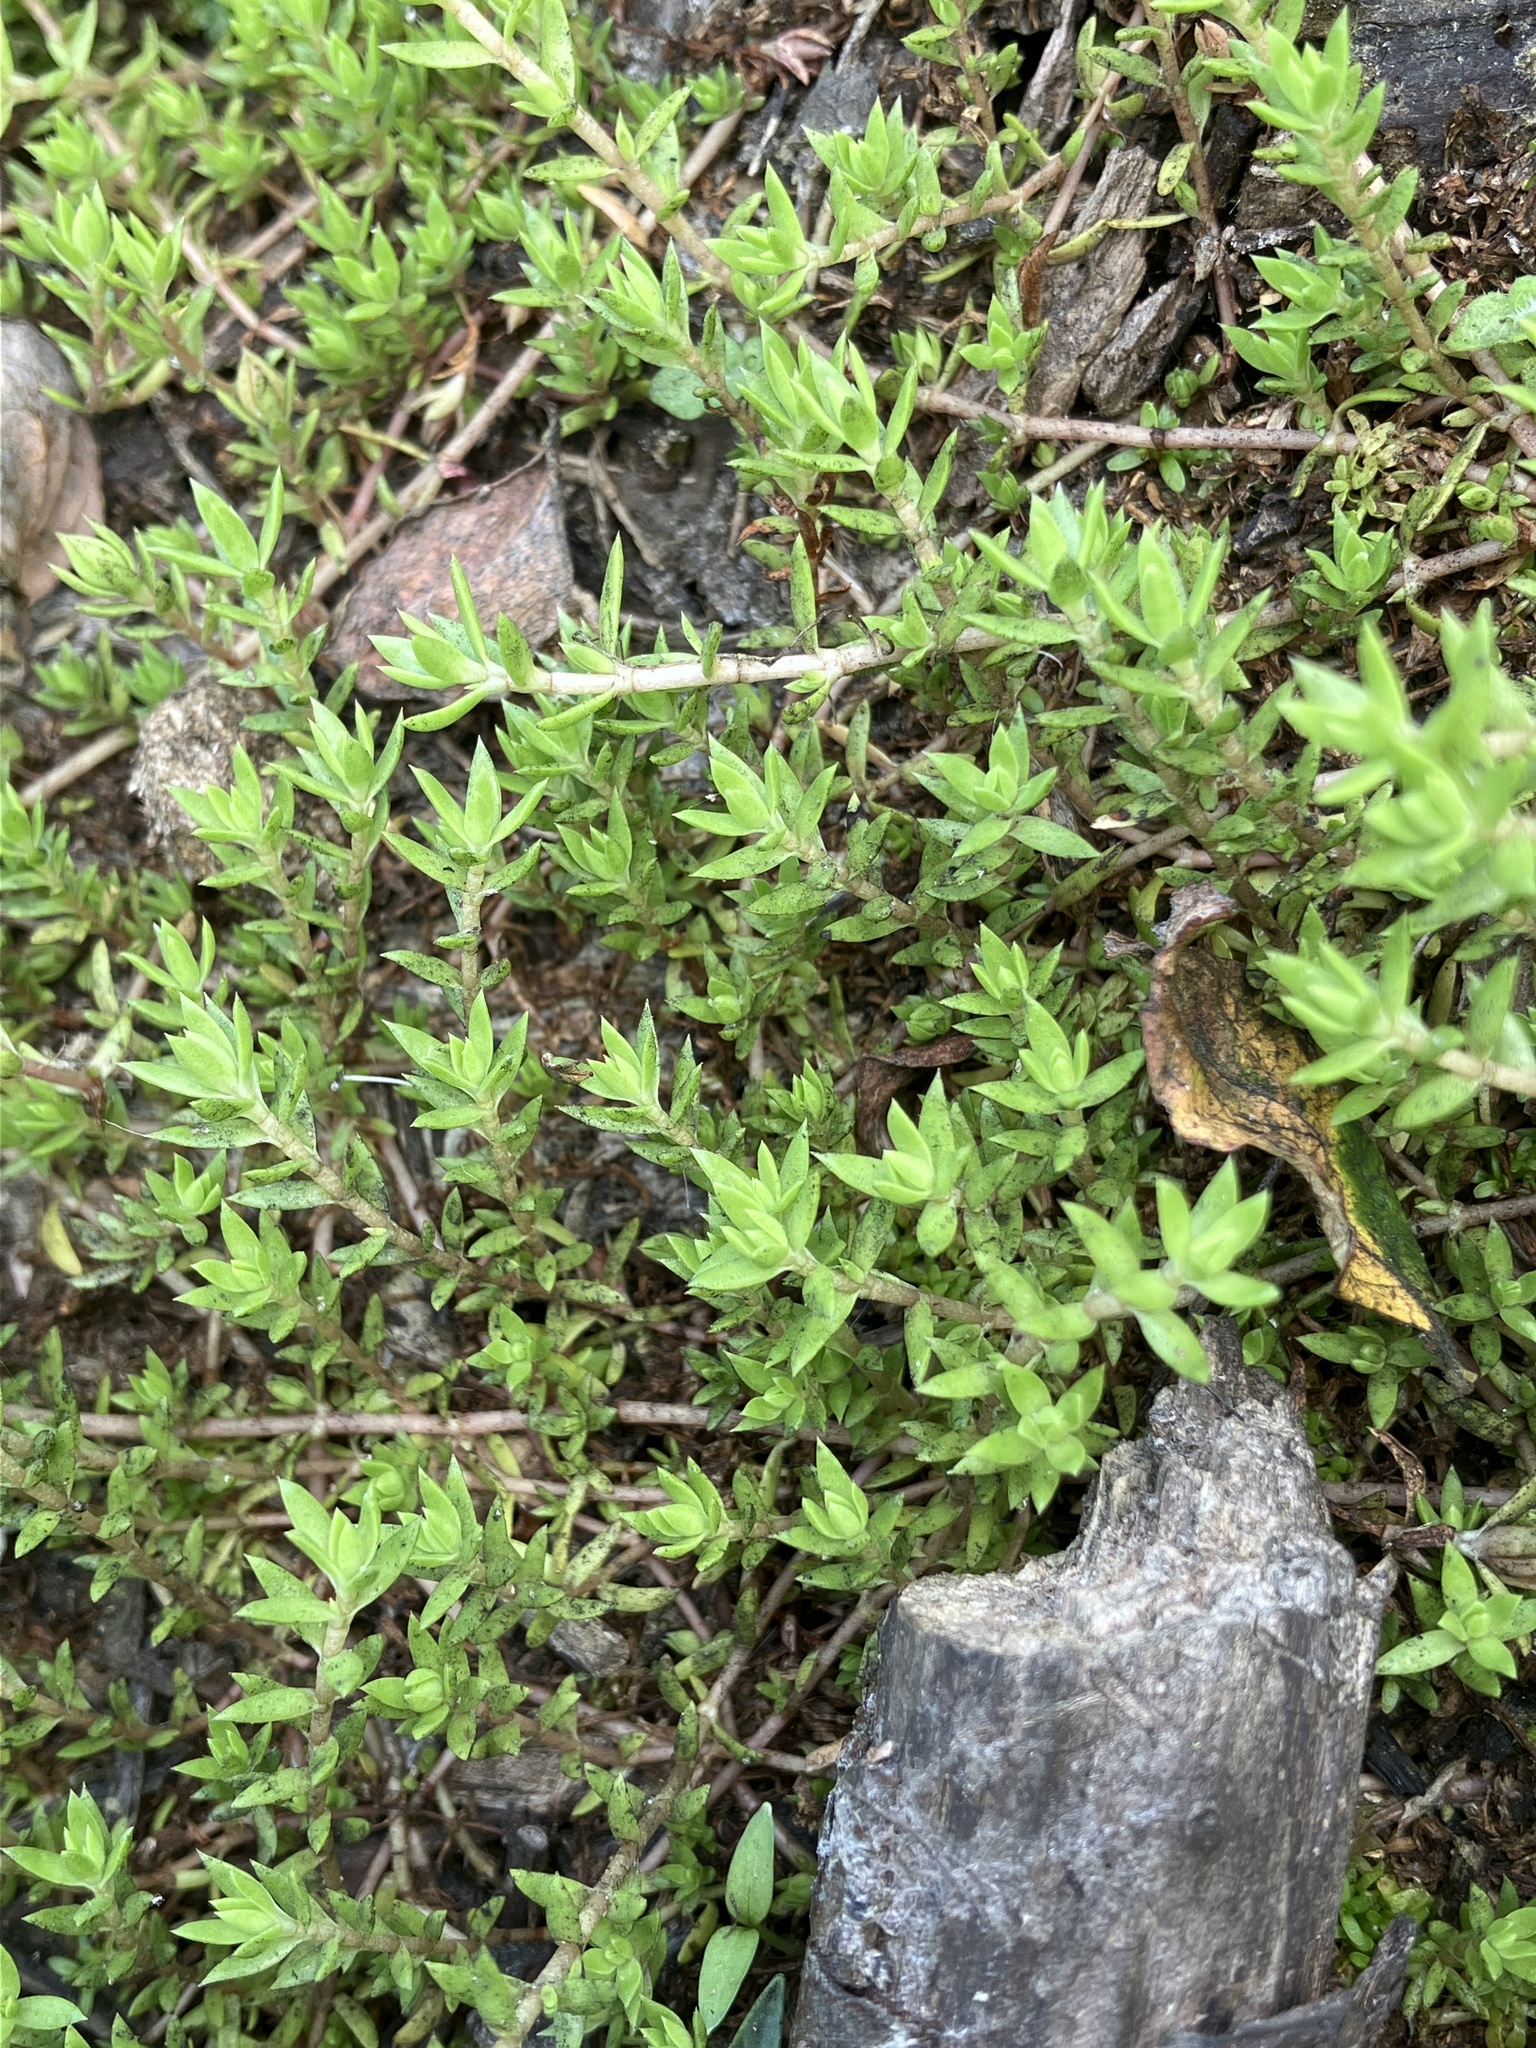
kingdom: Plantae
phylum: Tracheophyta
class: Magnoliopsida
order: Saxifragales
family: Crassulaceae
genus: Crassula
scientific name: Crassula helmsii
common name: New zealand pigmyweed
